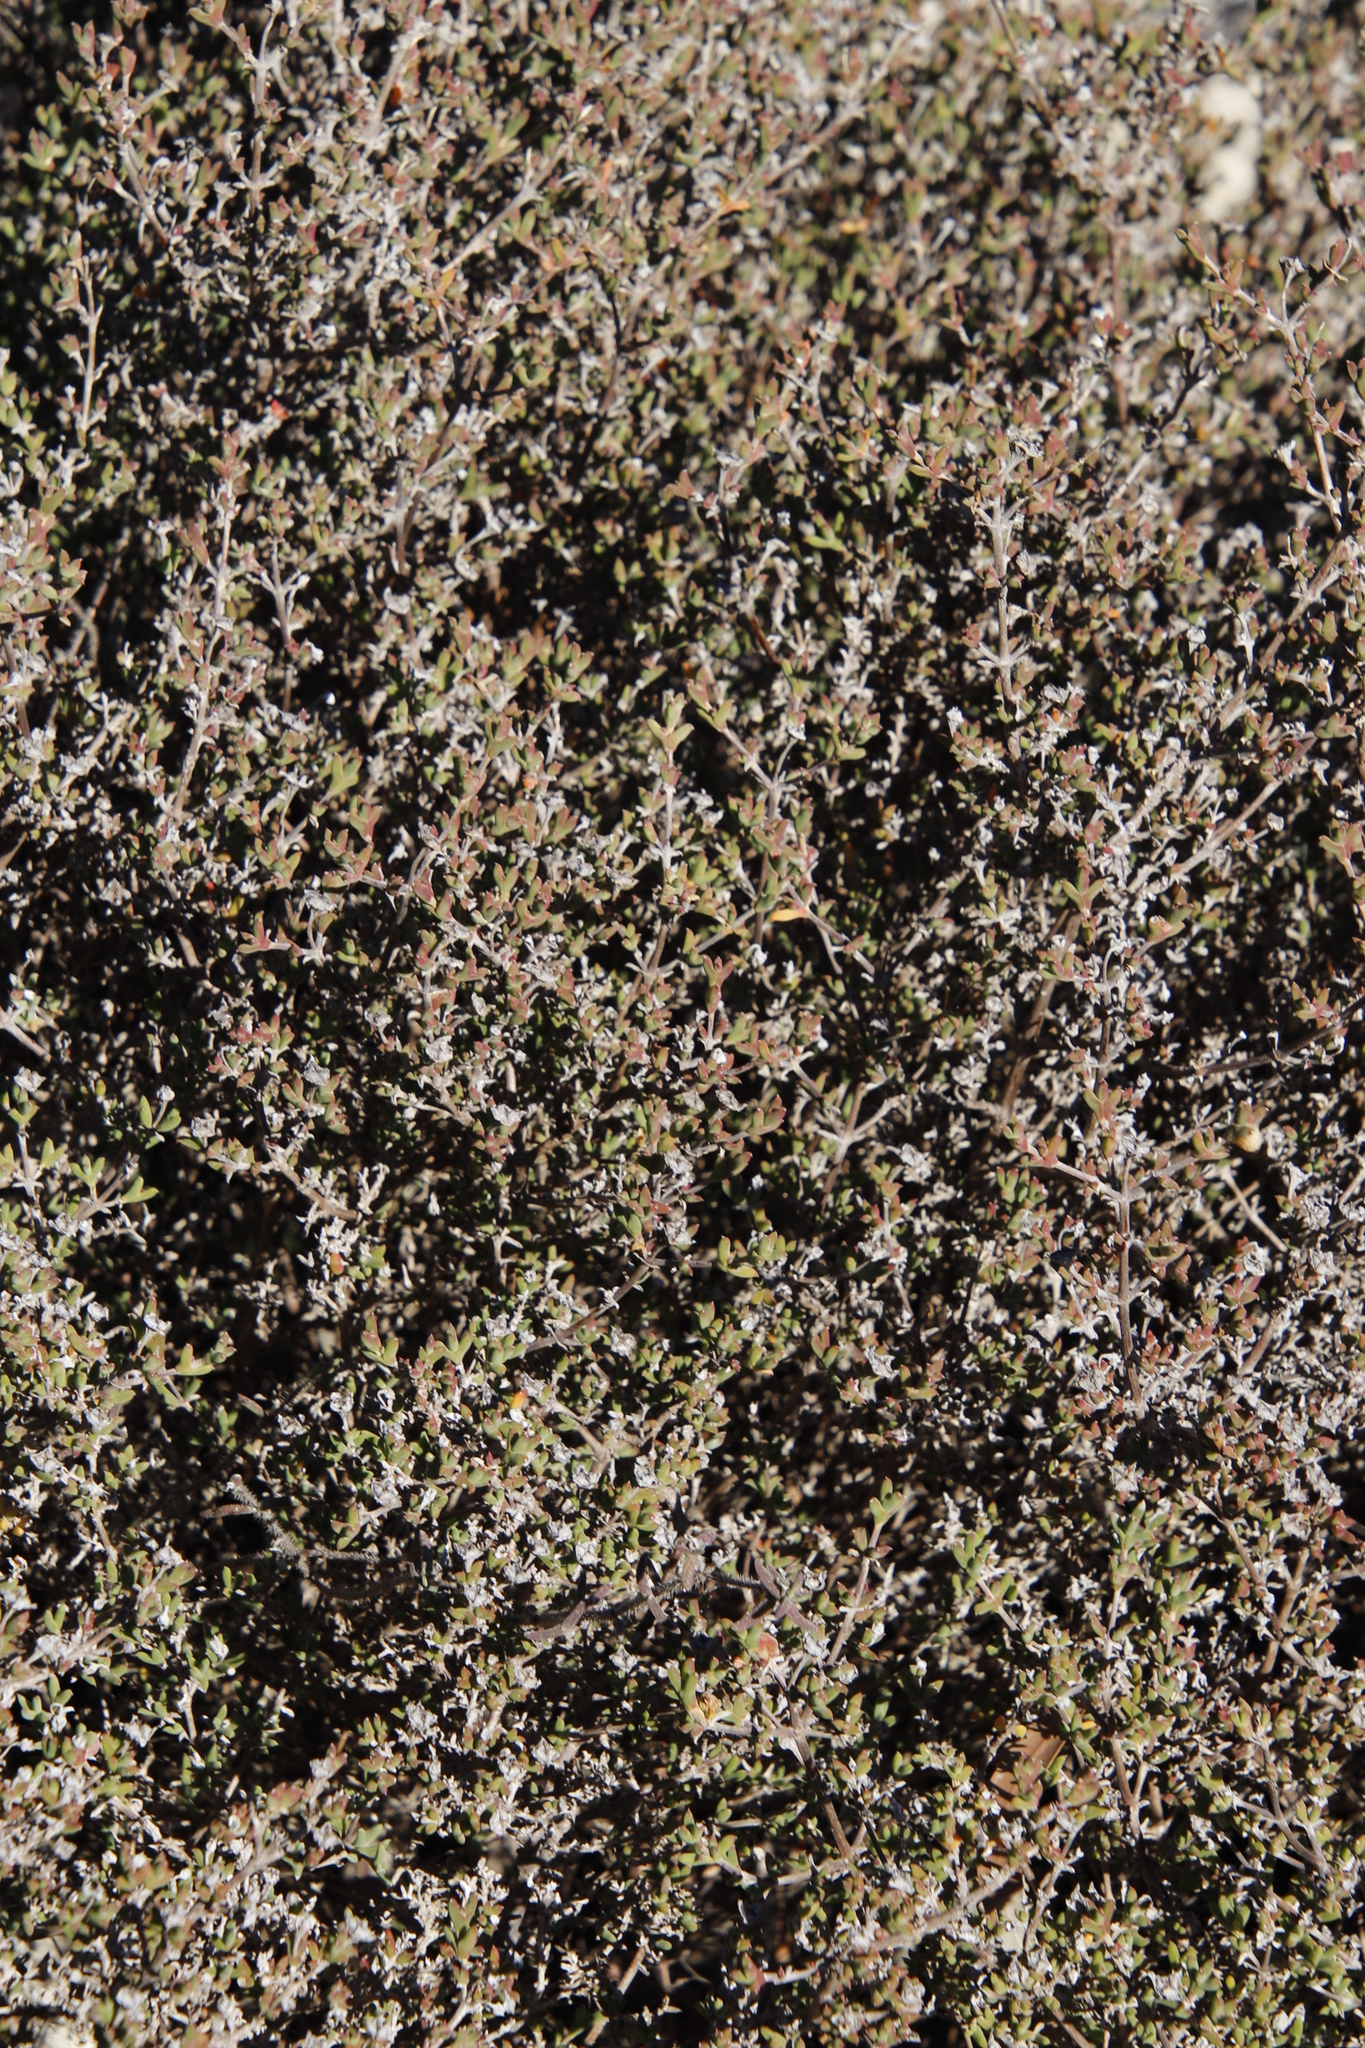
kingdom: Plantae
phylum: Tracheophyta
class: Magnoliopsida
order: Caryophyllales
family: Aizoaceae
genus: Delosperma
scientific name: Delosperma asperulum
